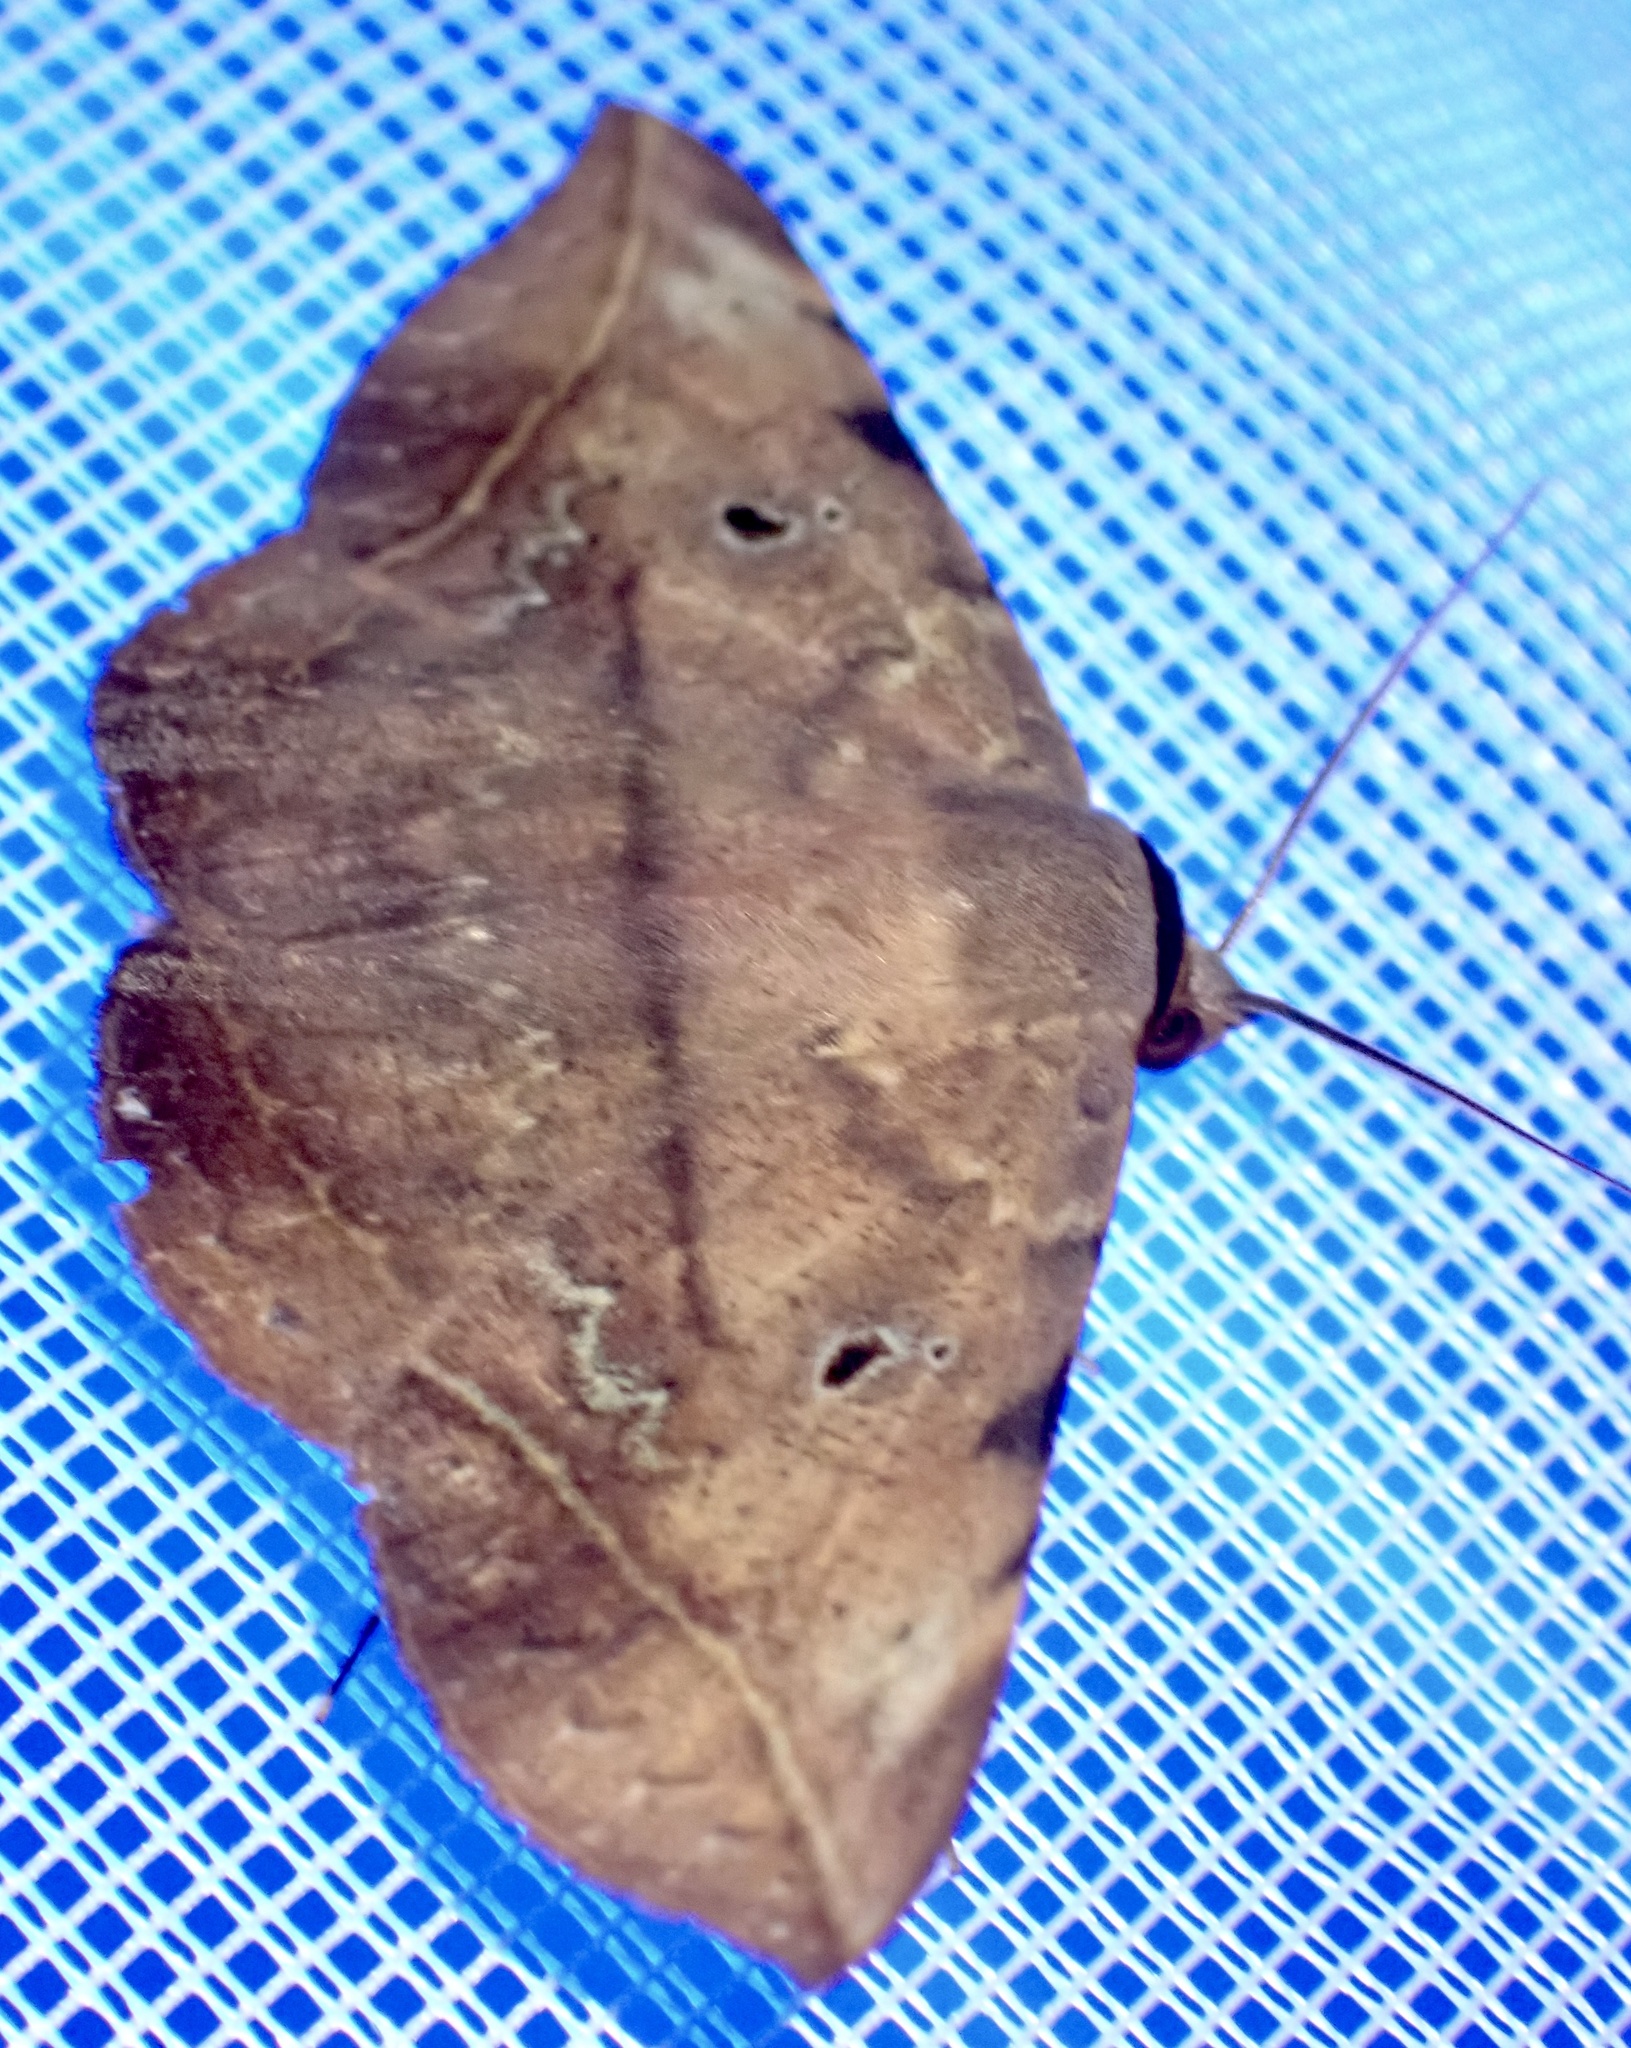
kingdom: Animalia
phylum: Arthropoda
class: Insecta
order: Lepidoptera
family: Erebidae
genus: Hypopyra
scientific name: Hypopyra capensis
